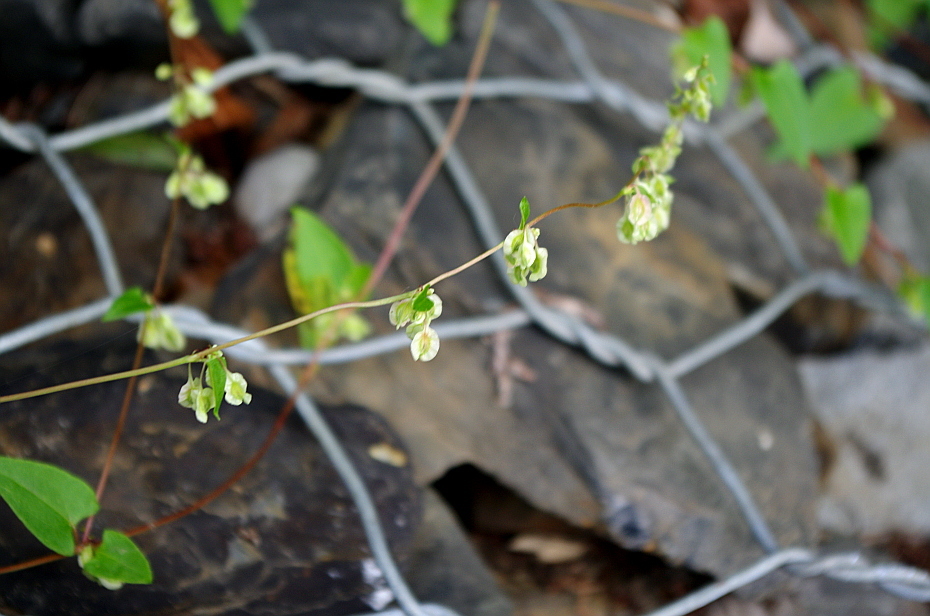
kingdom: Plantae
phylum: Tracheophyta
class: Magnoliopsida
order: Caryophyllales
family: Polygonaceae
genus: Fallopia
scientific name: Fallopia dumetorum
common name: Copse-bindweed
